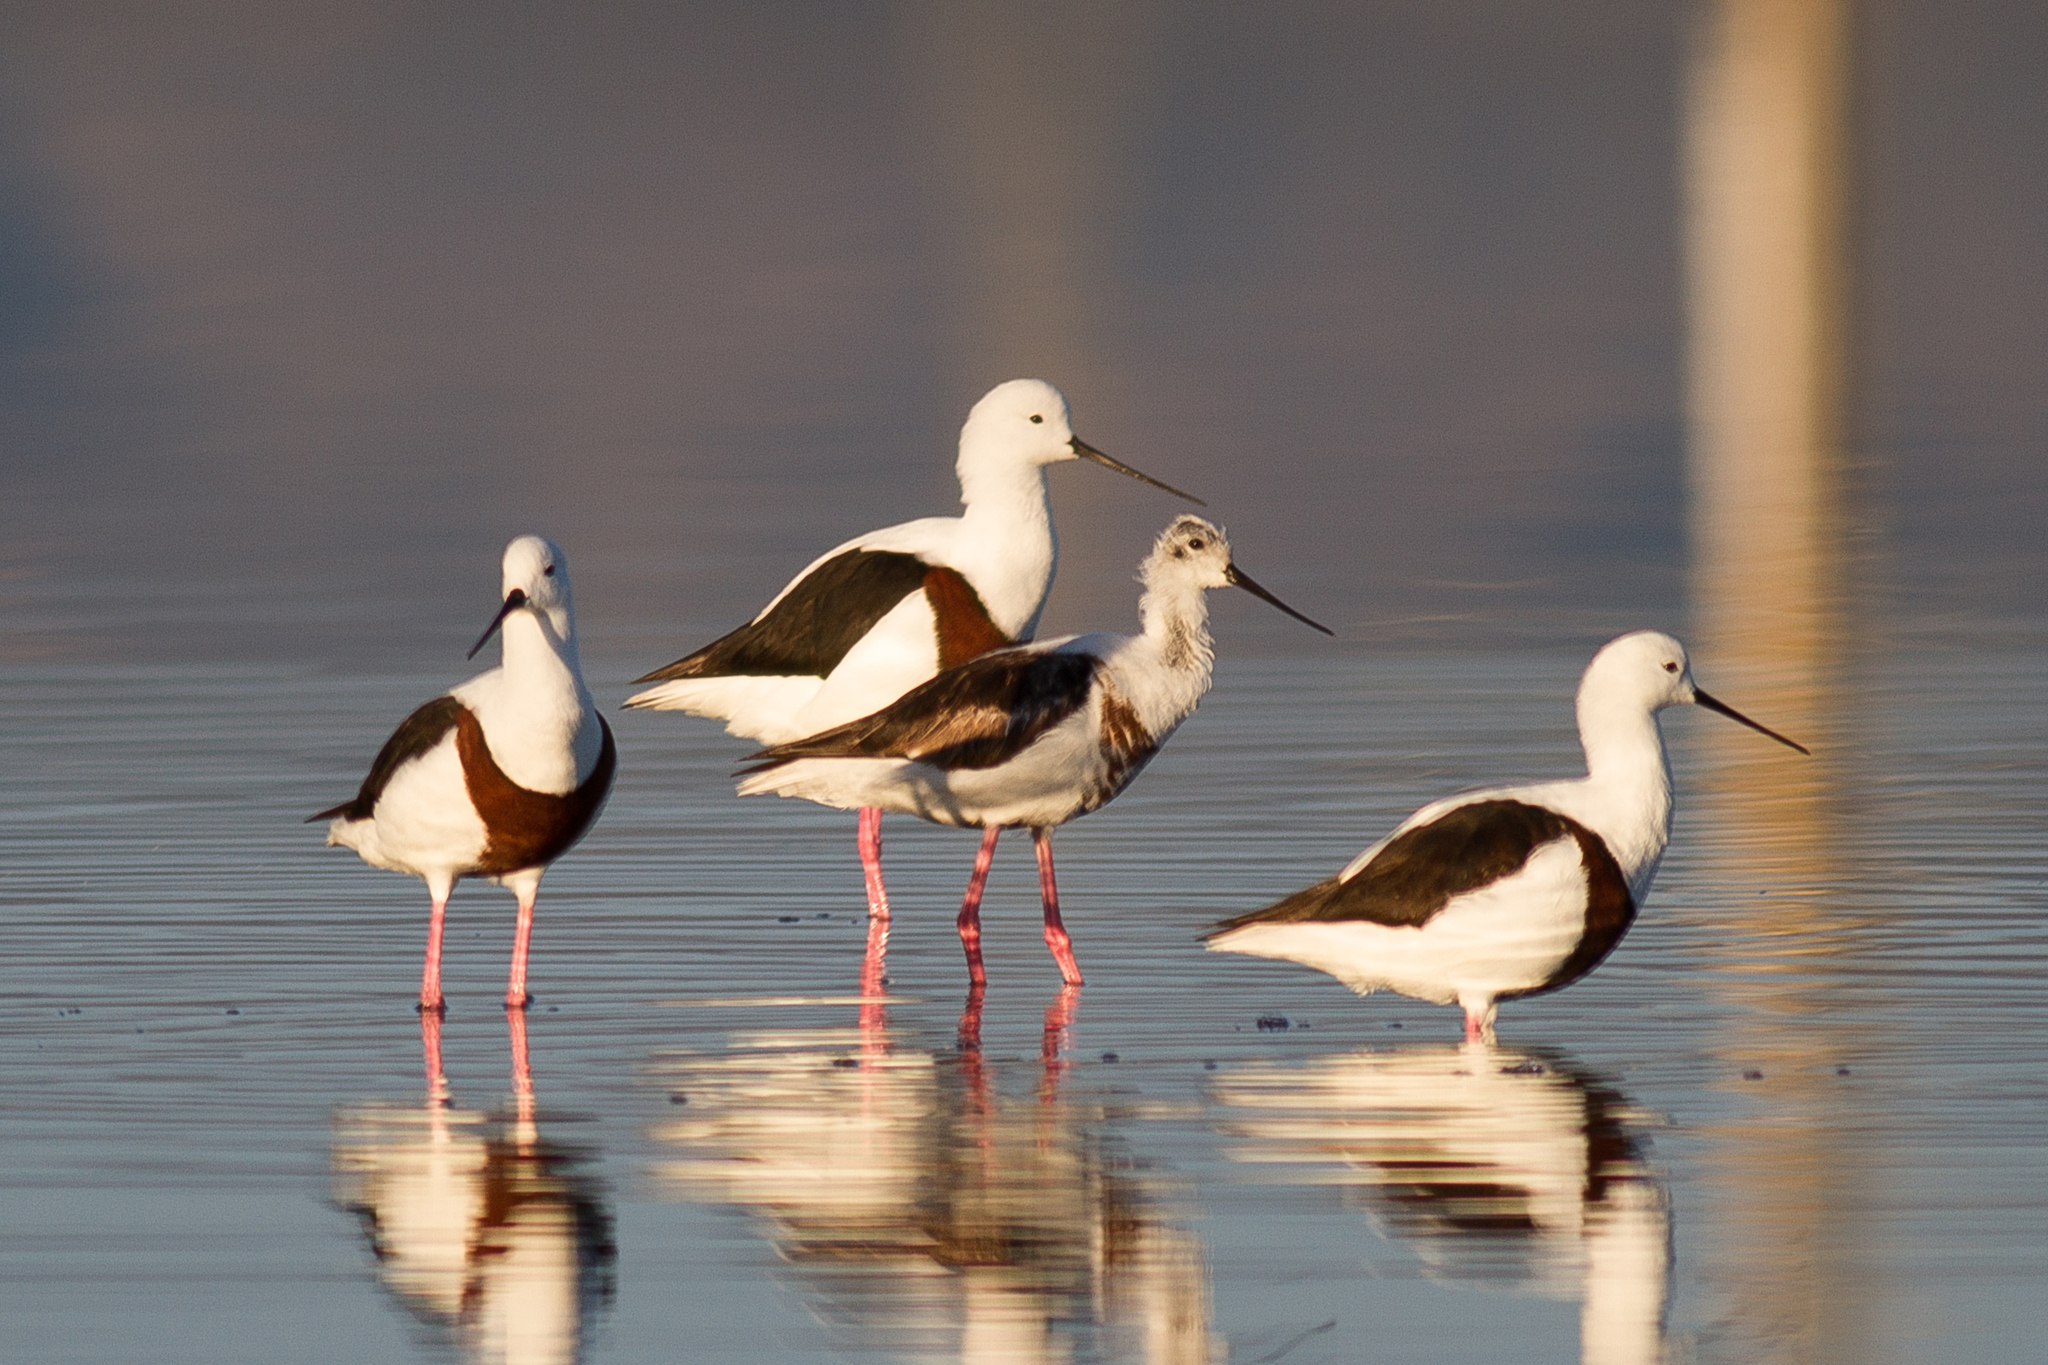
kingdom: Animalia
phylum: Chordata
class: Aves
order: Charadriiformes
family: Recurvirostridae
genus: Cladorhynchus
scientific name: Cladorhynchus leucocephalus
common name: Banded stilt
